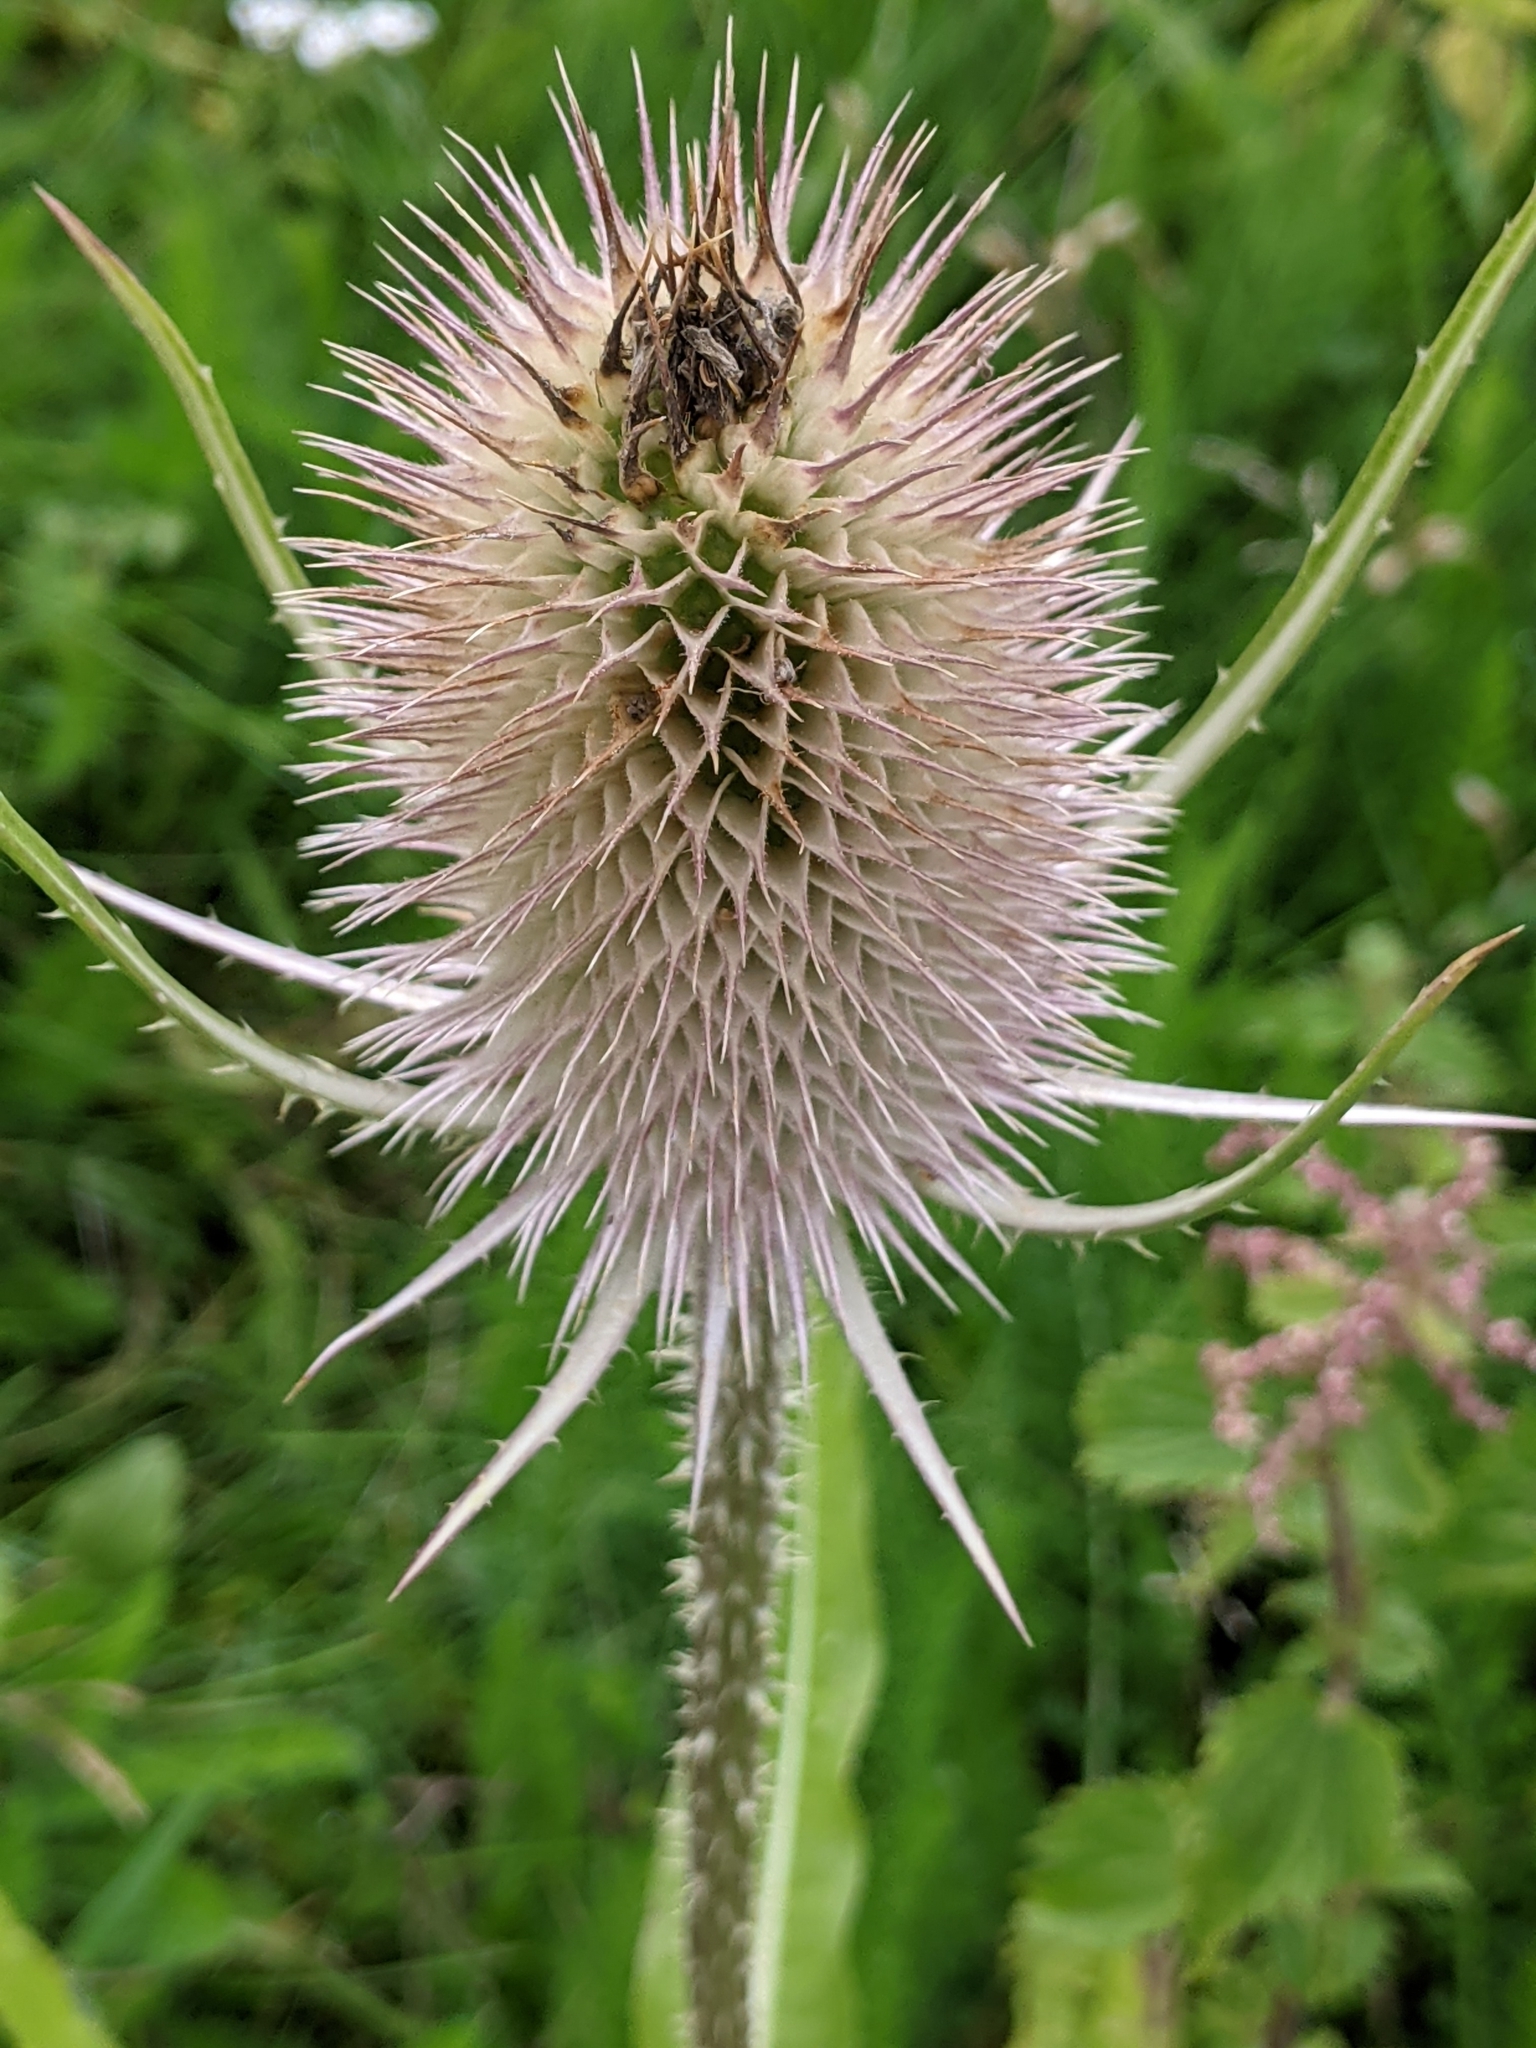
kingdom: Plantae
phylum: Tracheophyta
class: Magnoliopsida
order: Dipsacales
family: Caprifoliaceae
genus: Dipsacus
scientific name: Dipsacus fullonum
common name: Teasel
